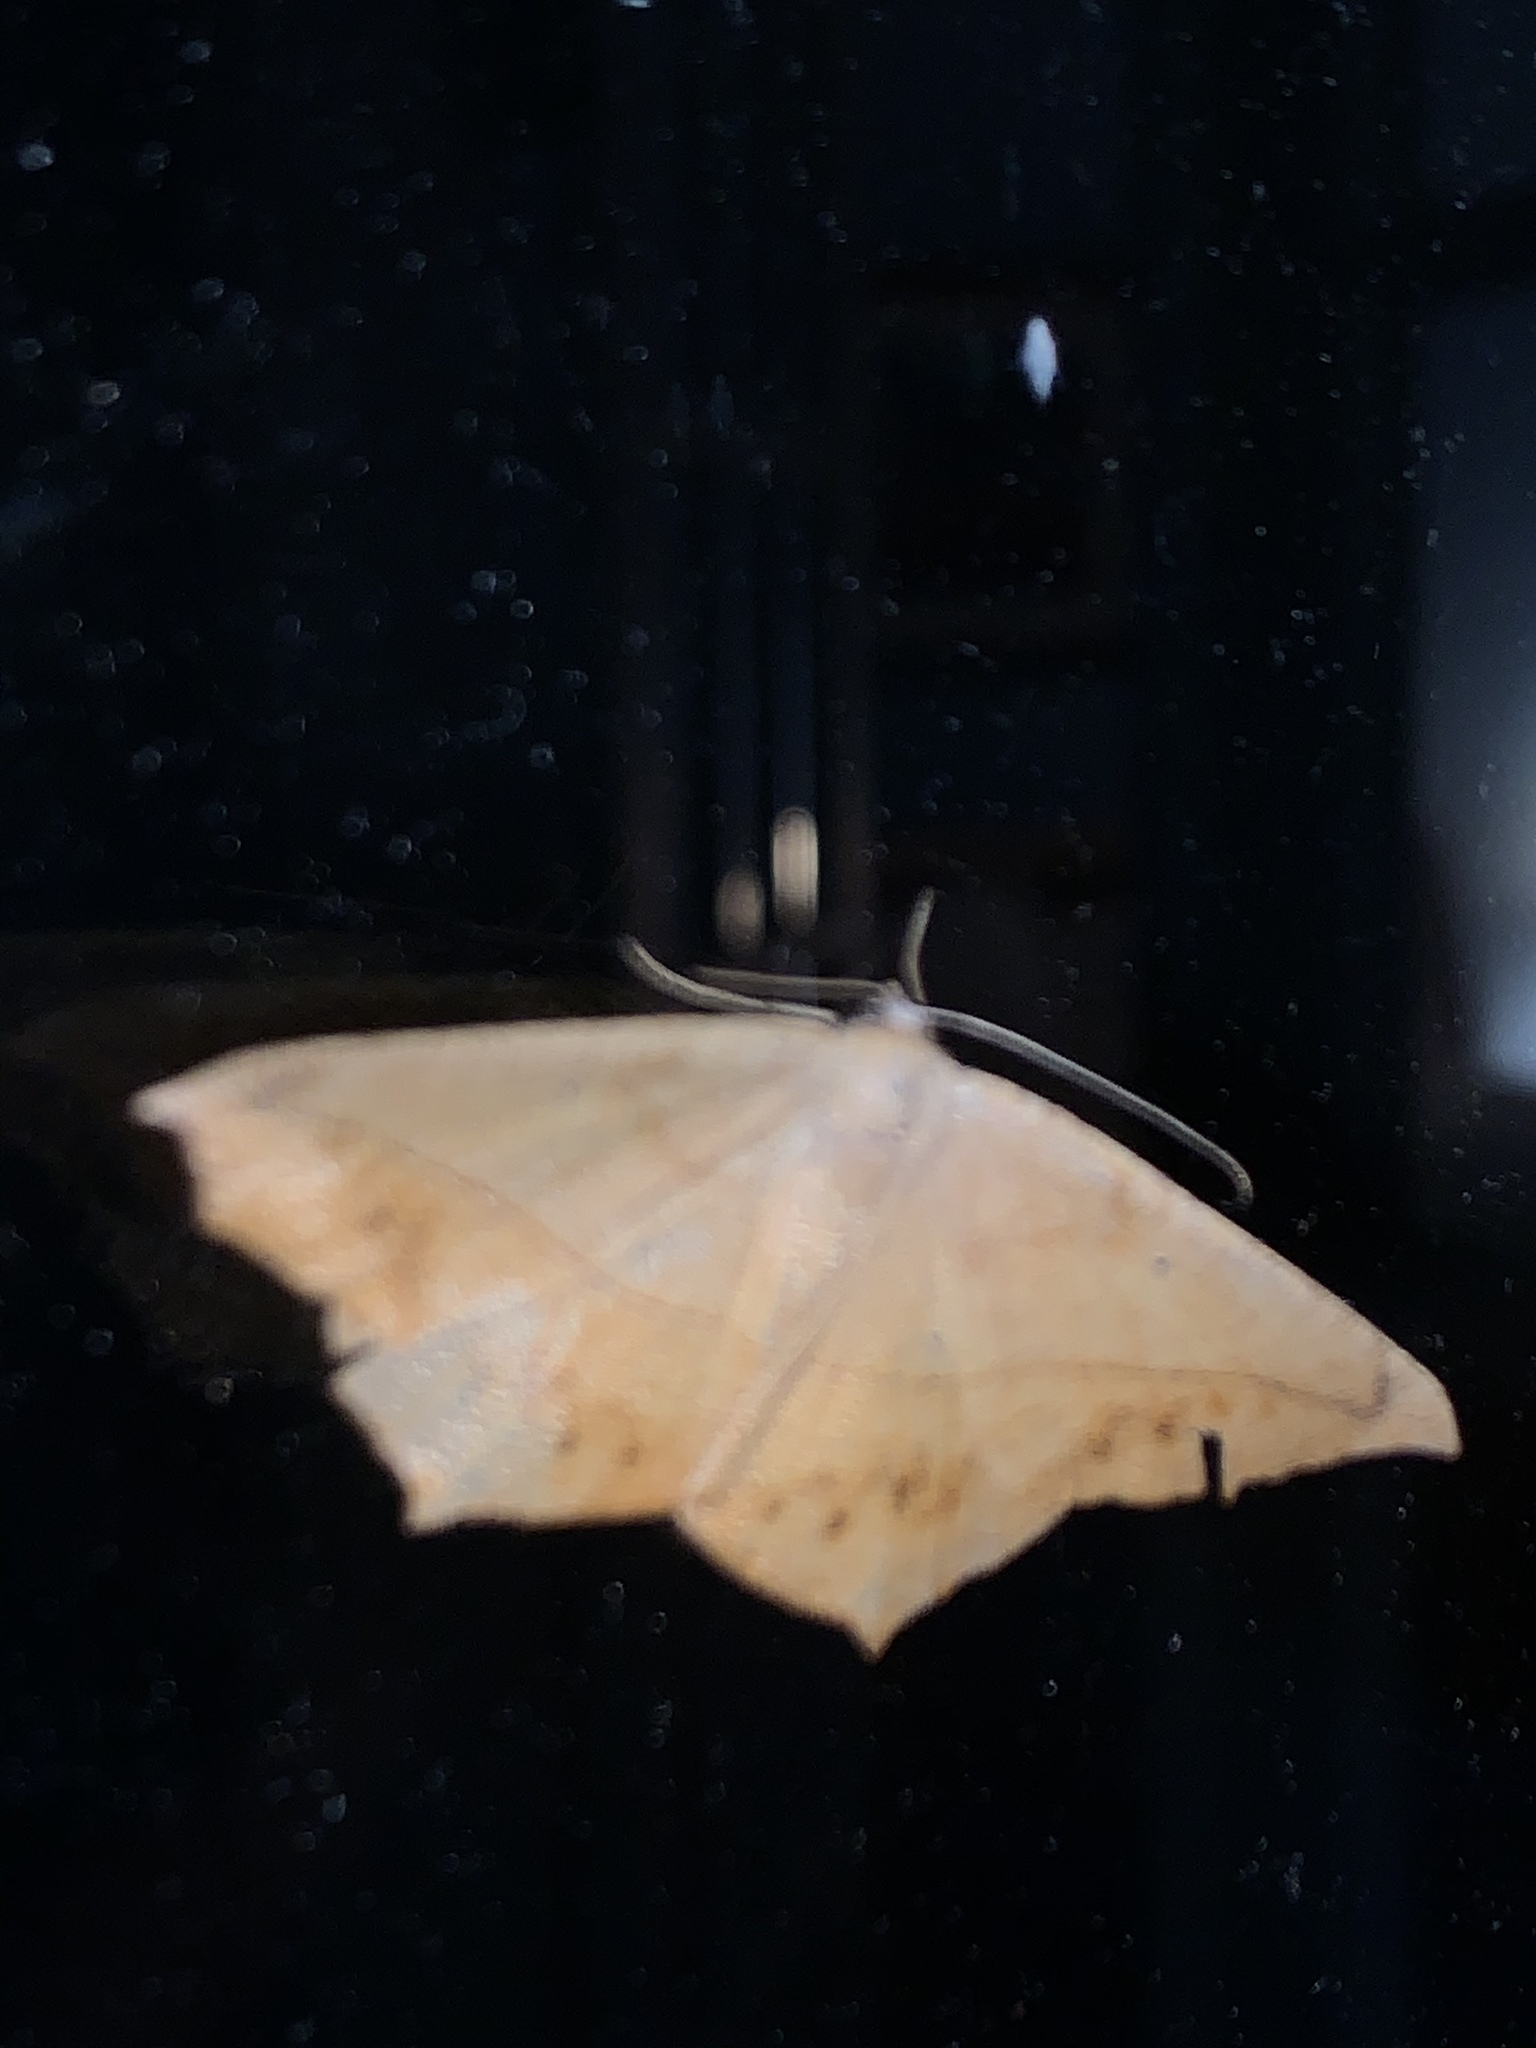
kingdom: Animalia
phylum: Arthropoda
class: Insecta
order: Lepidoptera
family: Geometridae
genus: Prochoerodes
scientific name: Prochoerodes lineola
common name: Large maple spanworm
